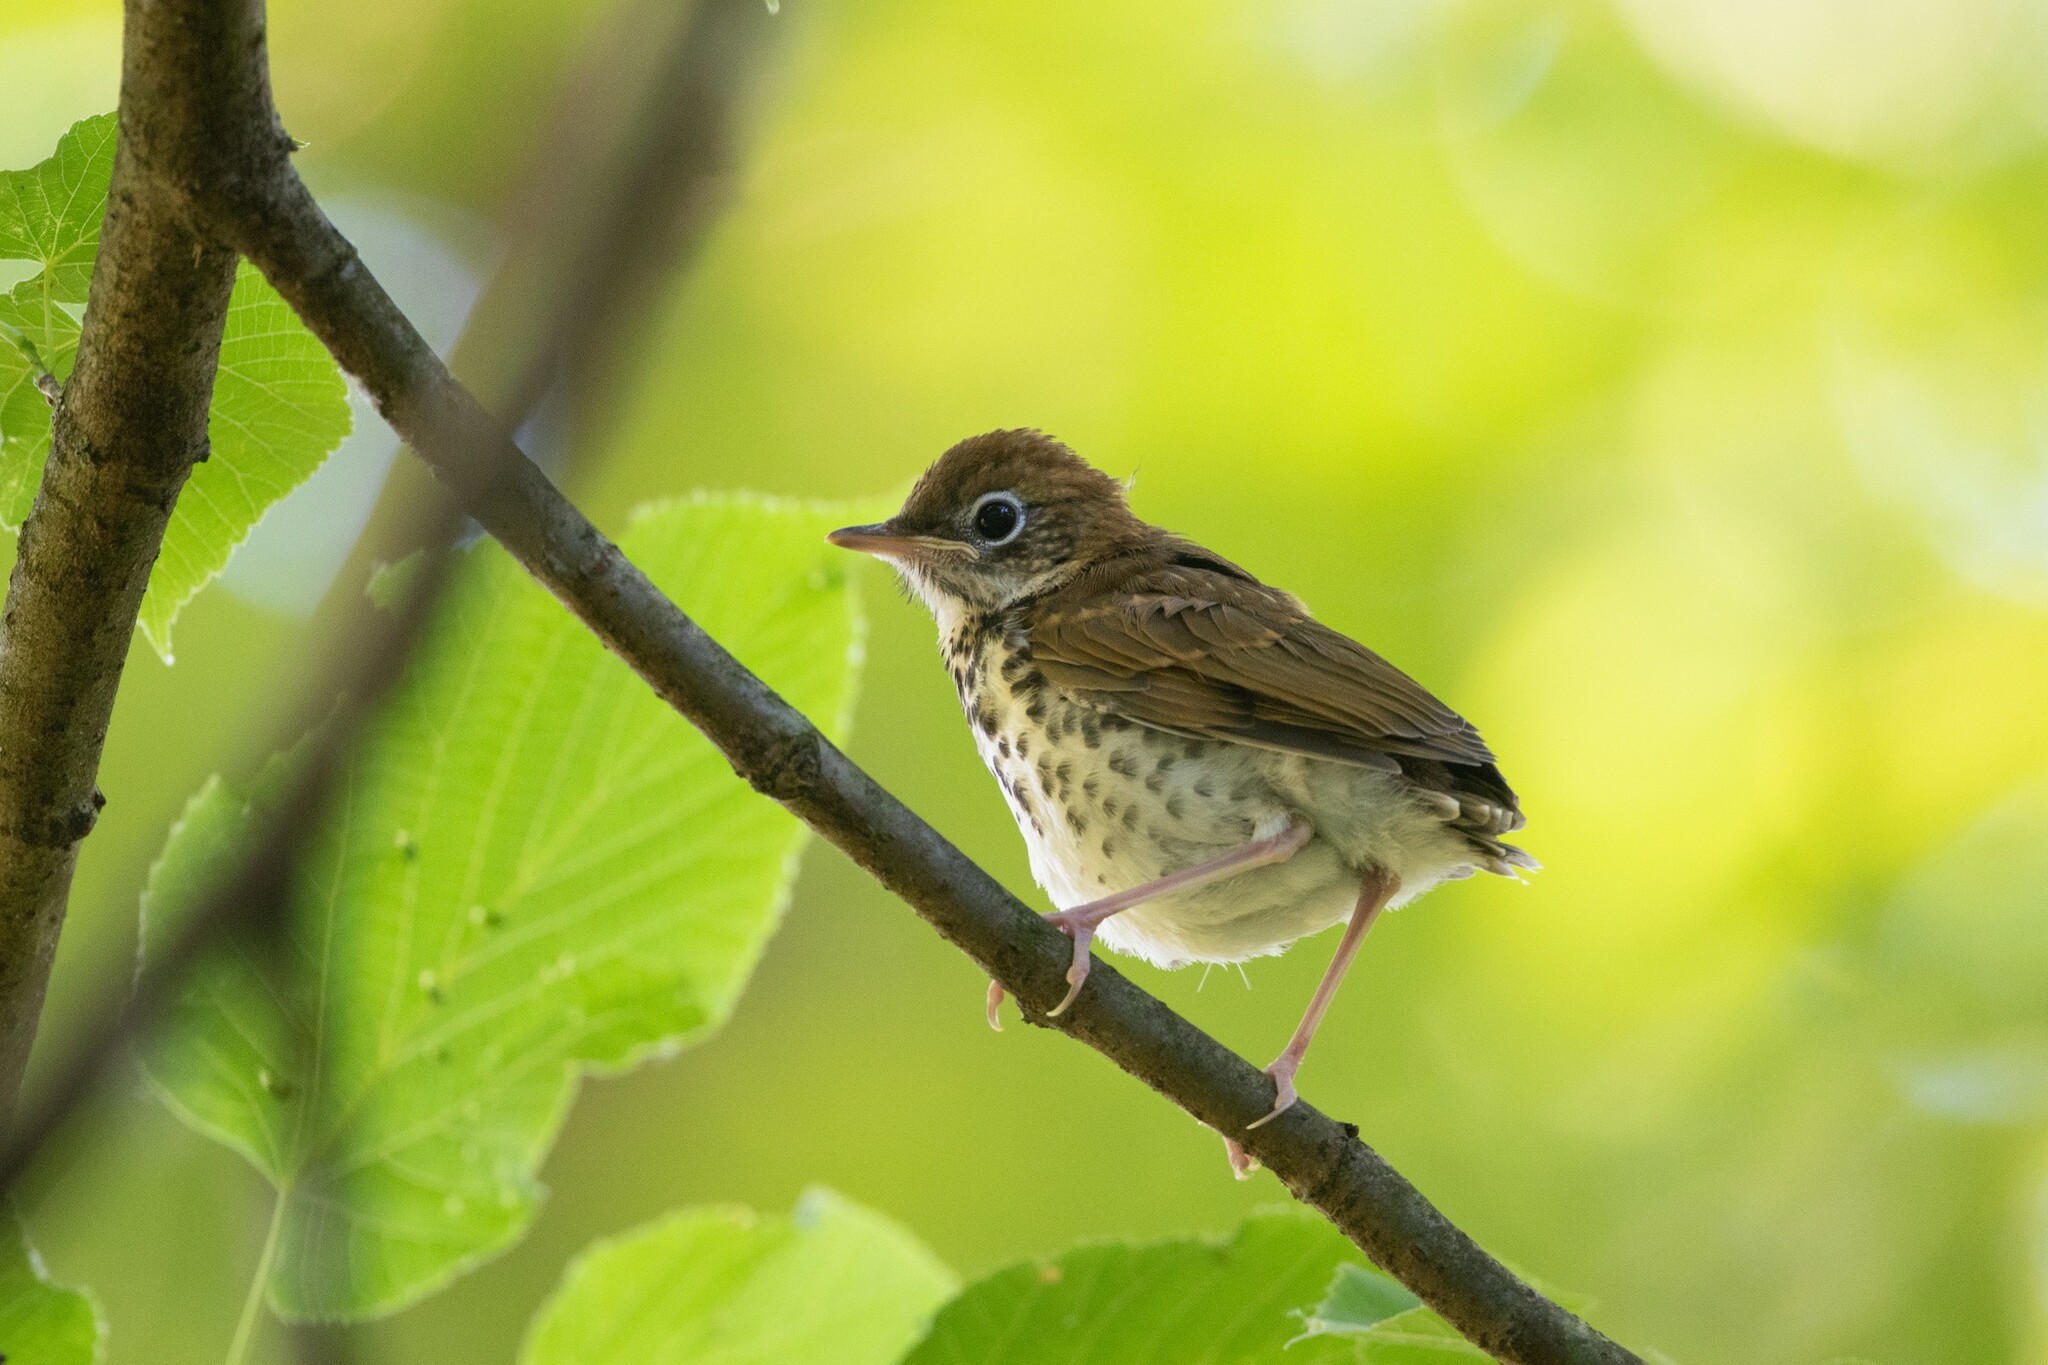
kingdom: Animalia
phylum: Chordata
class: Aves
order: Passeriformes
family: Turdidae
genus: Hylocichla
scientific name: Hylocichla mustelina
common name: Wood thrush
